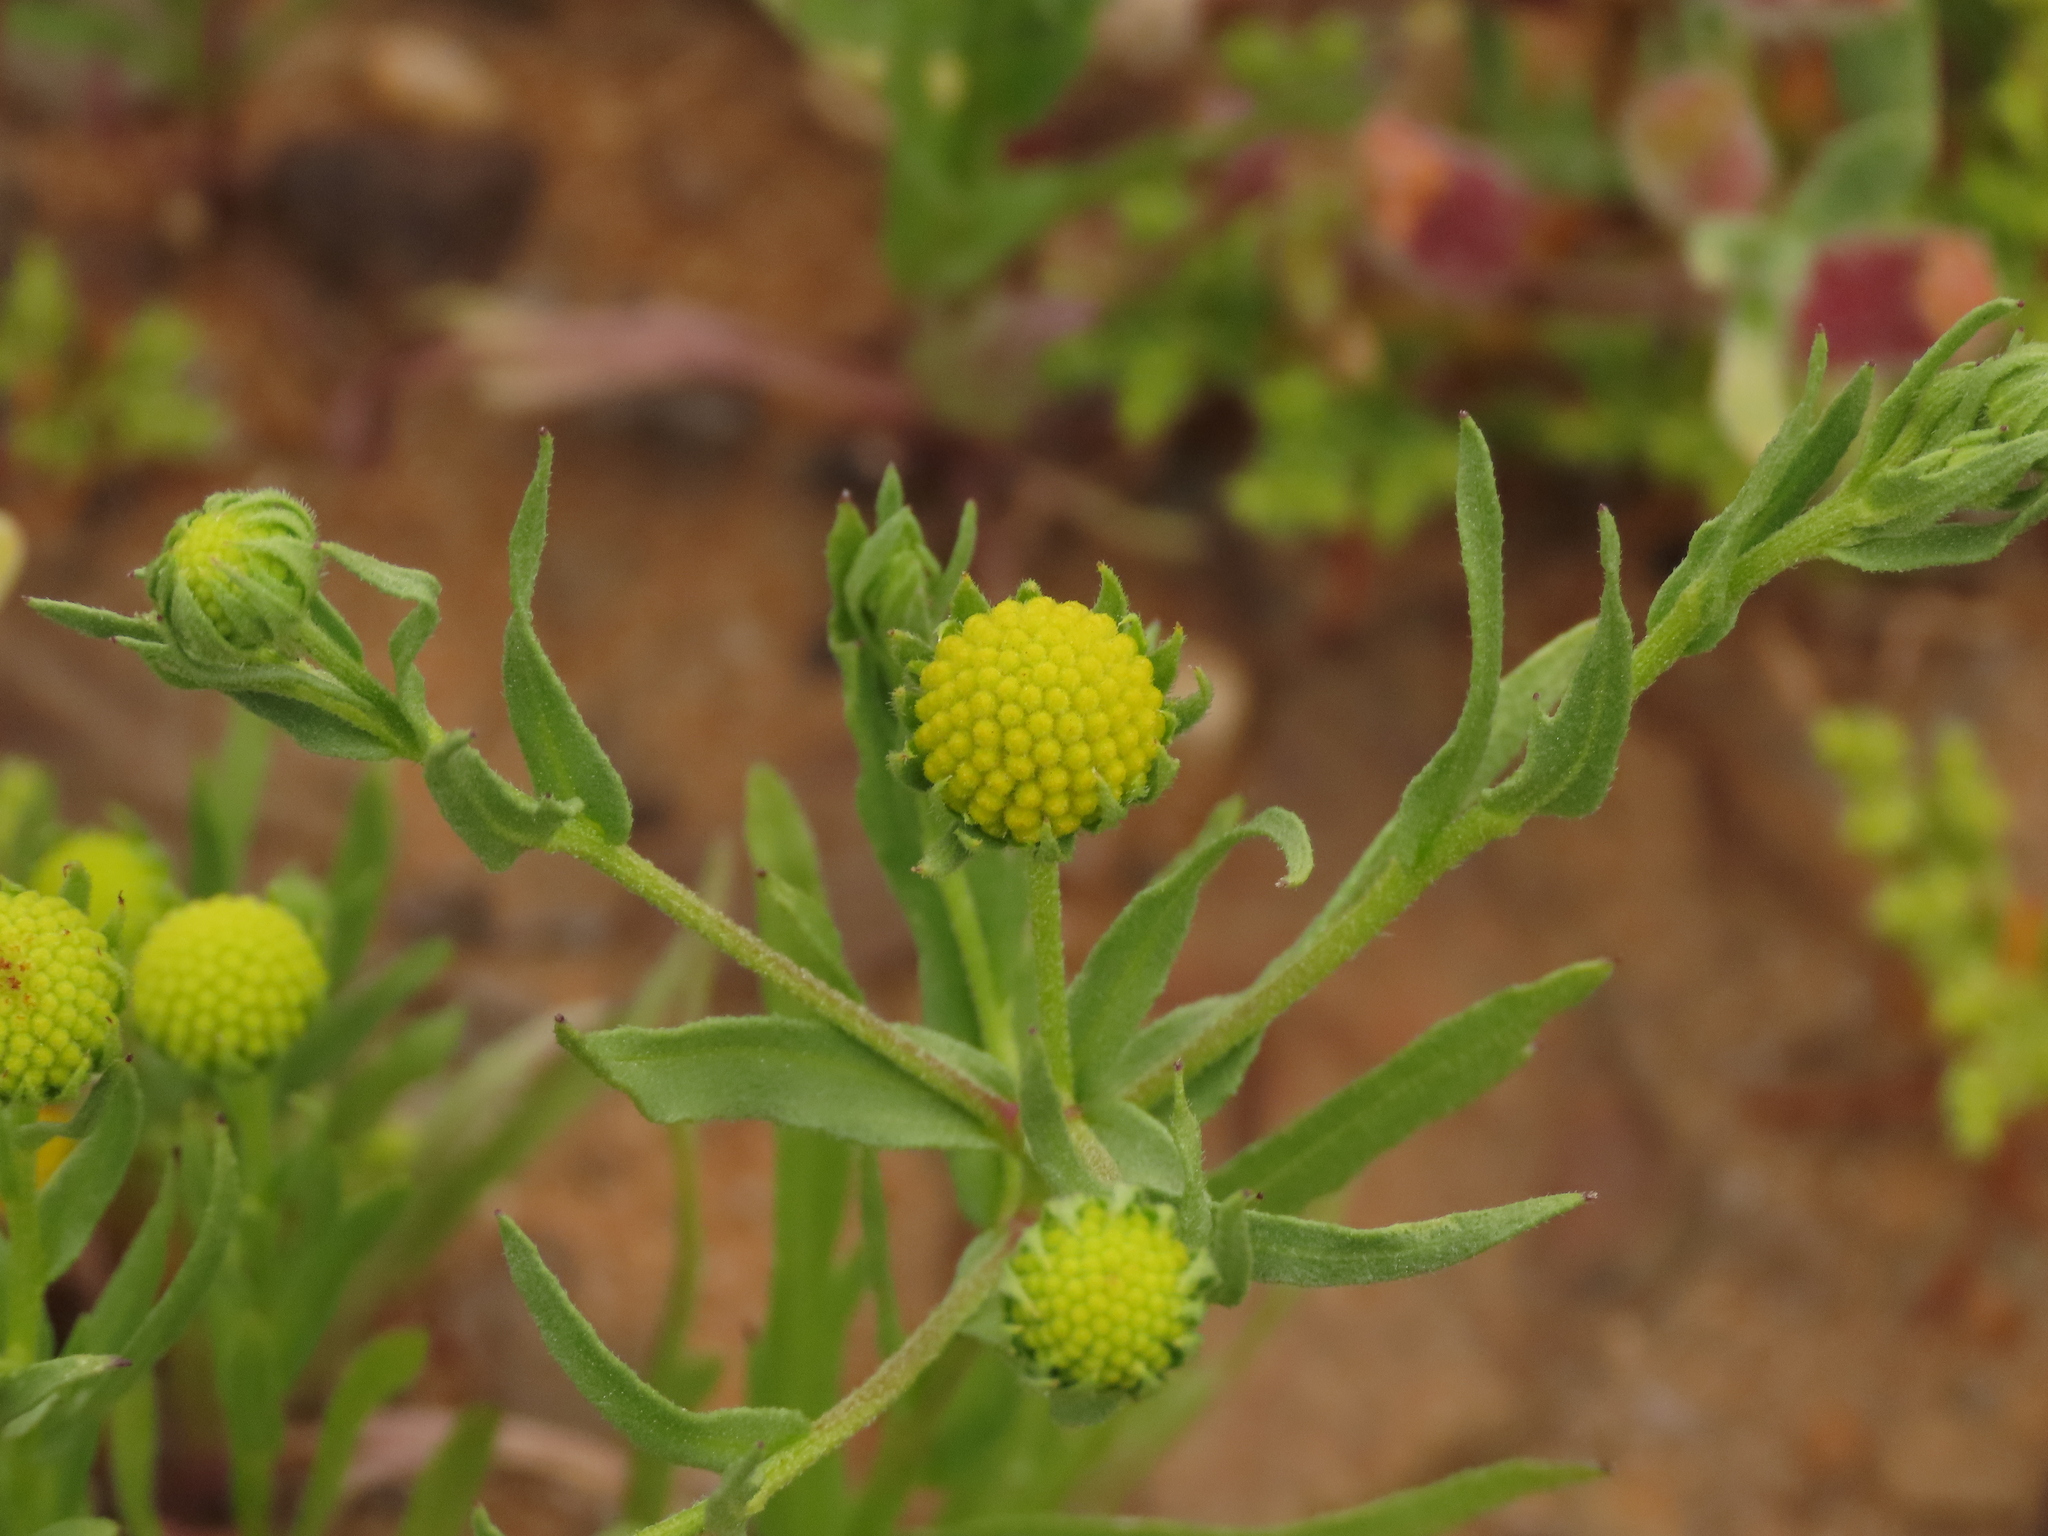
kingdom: Plantae
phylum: Tracheophyta
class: Magnoliopsida
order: Asterales
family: Asteraceae
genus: Helenium
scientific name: Helenium atacamense
